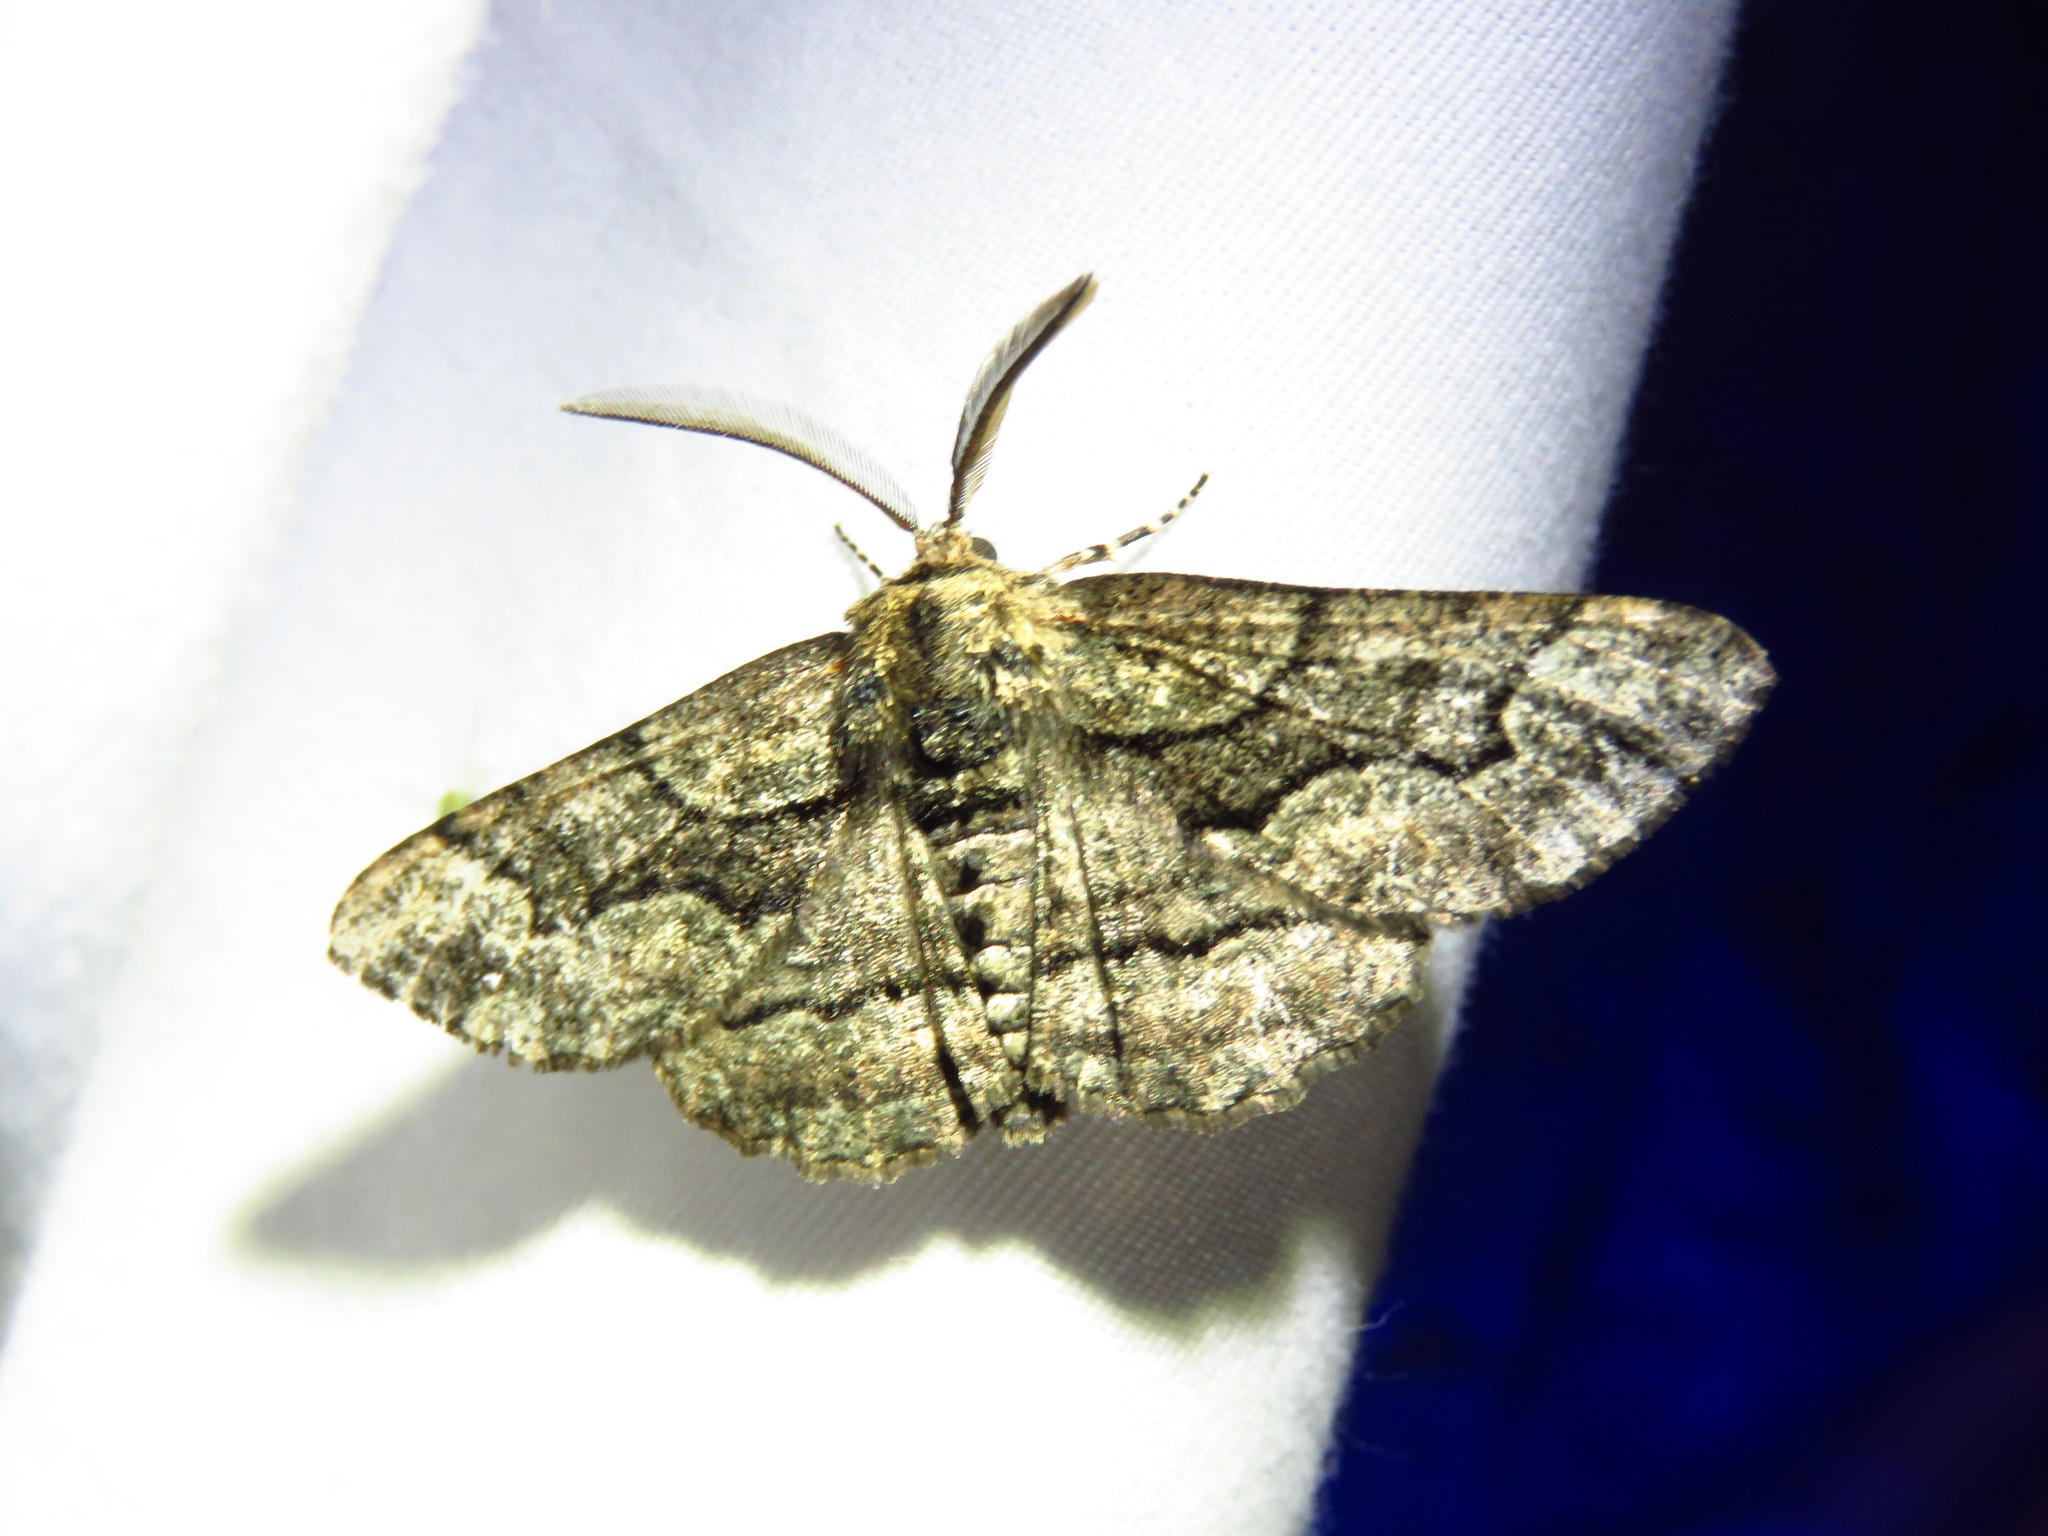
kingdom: Animalia
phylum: Arthropoda
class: Insecta
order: Lepidoptera
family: Geometridae
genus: Phaeoura
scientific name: Phaeoura quernaria
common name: Oak beauty
